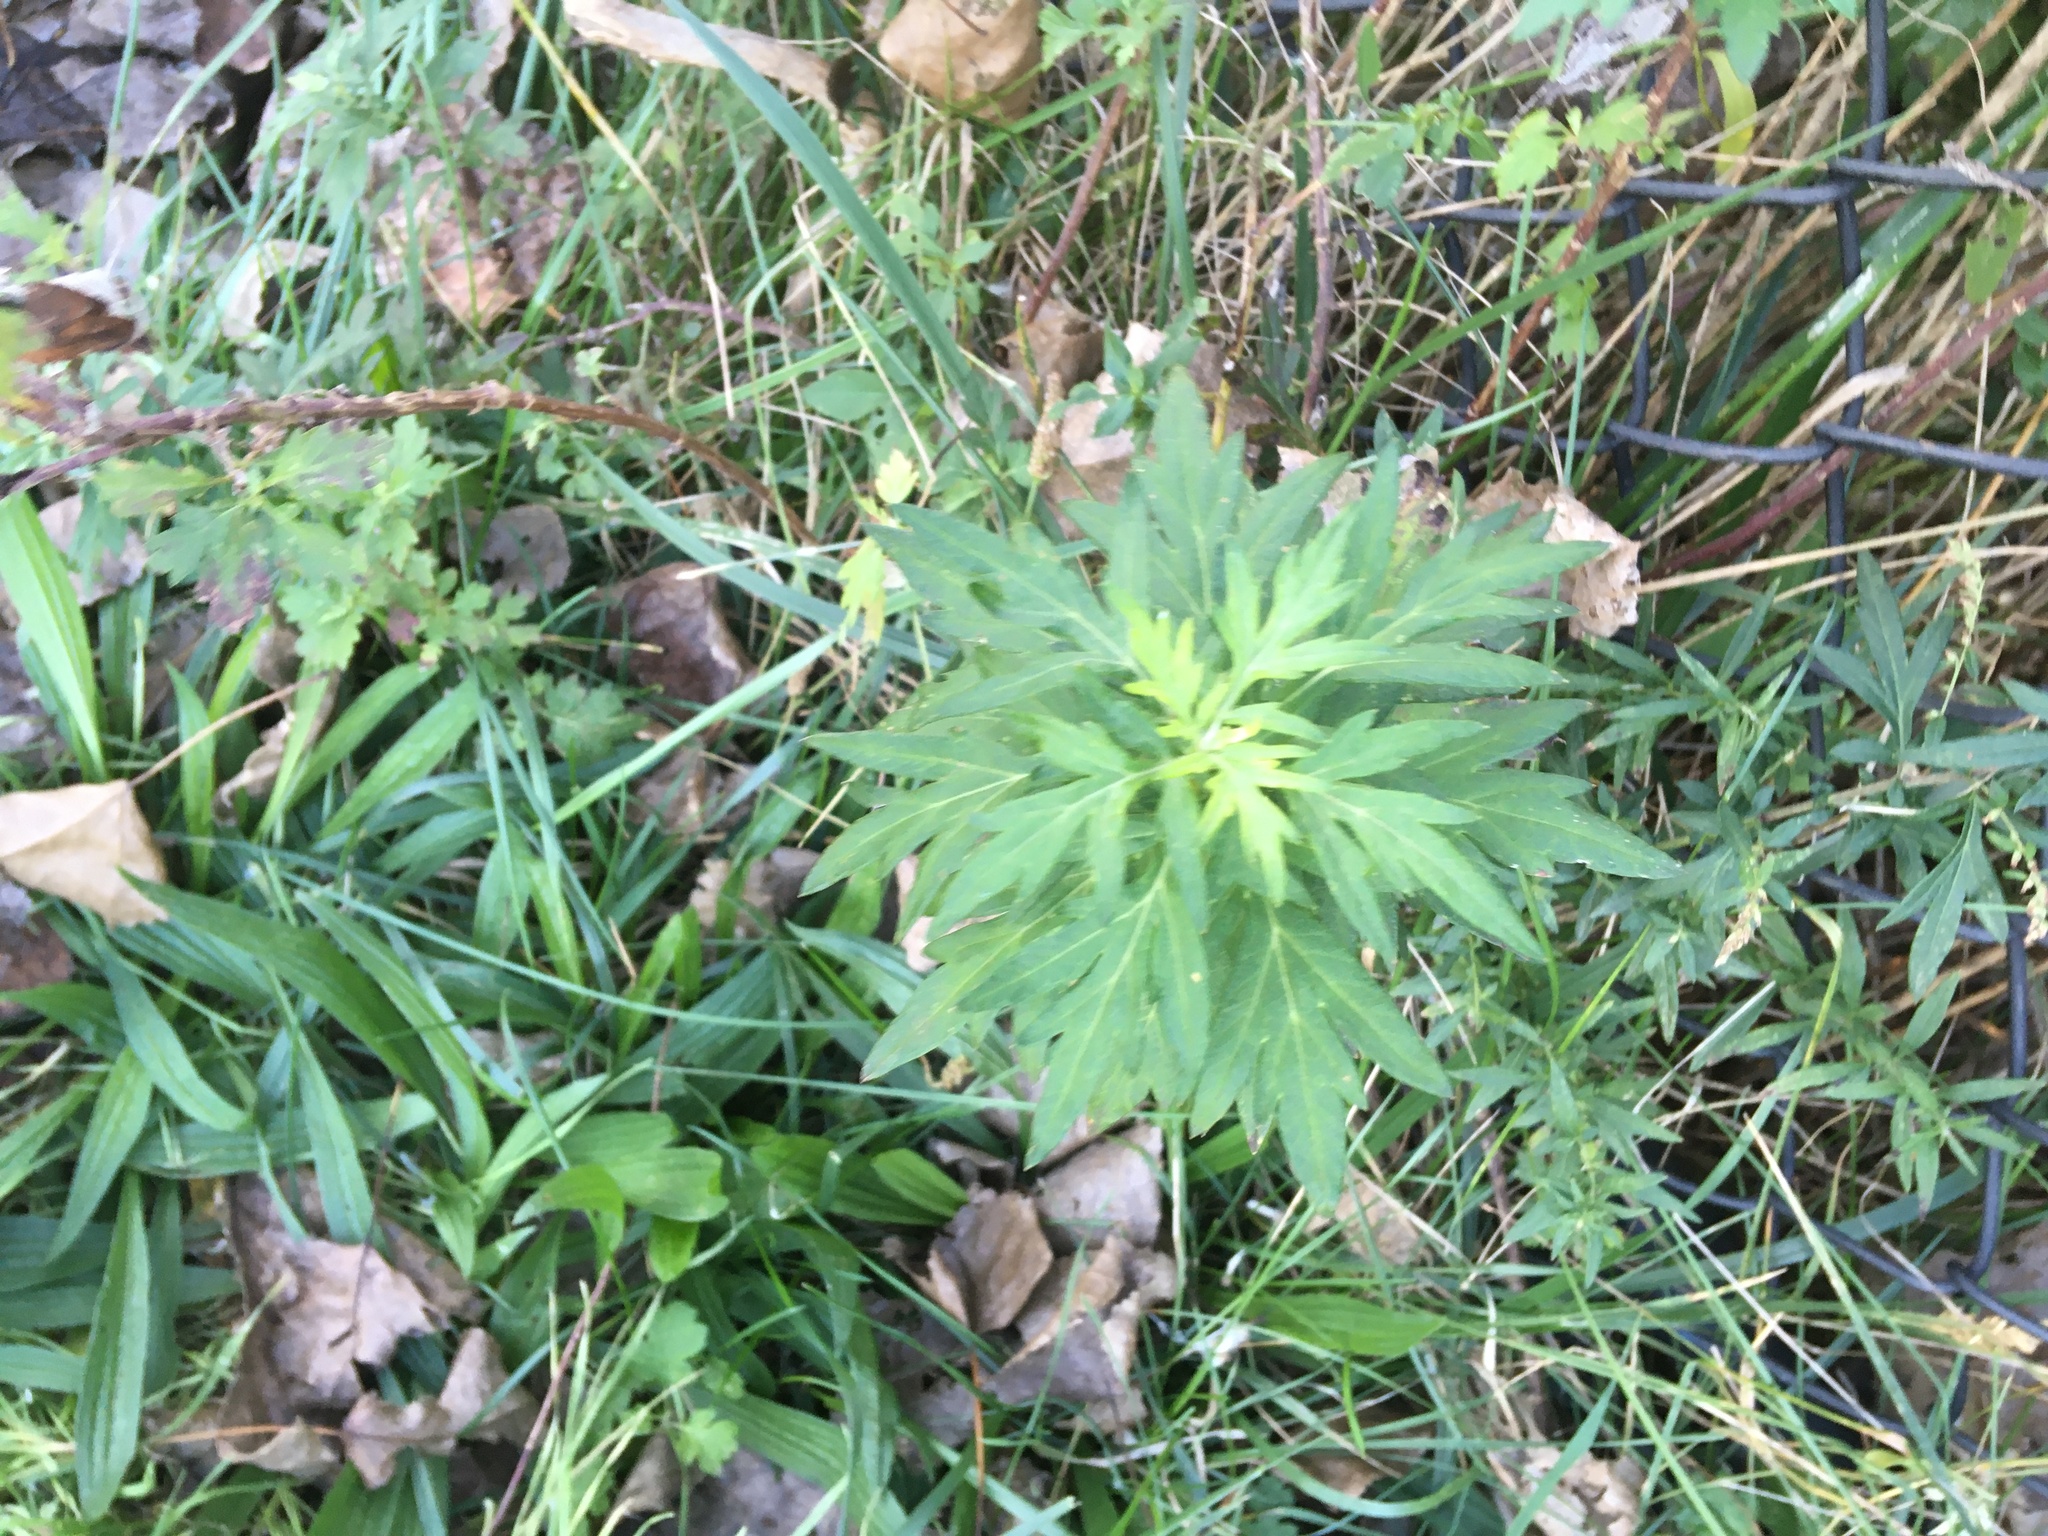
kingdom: Plantae
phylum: Tracheophyta
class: Magnoliopsida
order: Asterales
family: Asteraceae
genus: Artemisia
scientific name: Artemisia vulgaris
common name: Mugwort
